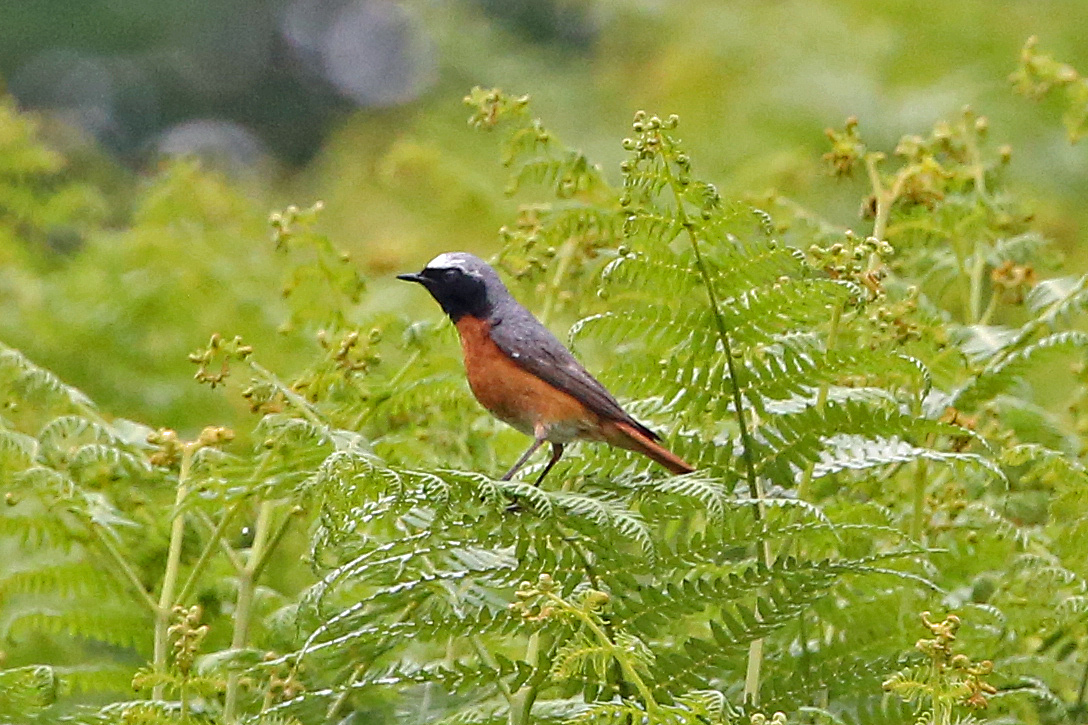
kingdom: Animalia
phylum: Chordata
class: Aves
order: Passeriformes
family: Muscicapidae
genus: Phoenicurus
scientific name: Phoenicurus phoenicurus
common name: Common redstart
